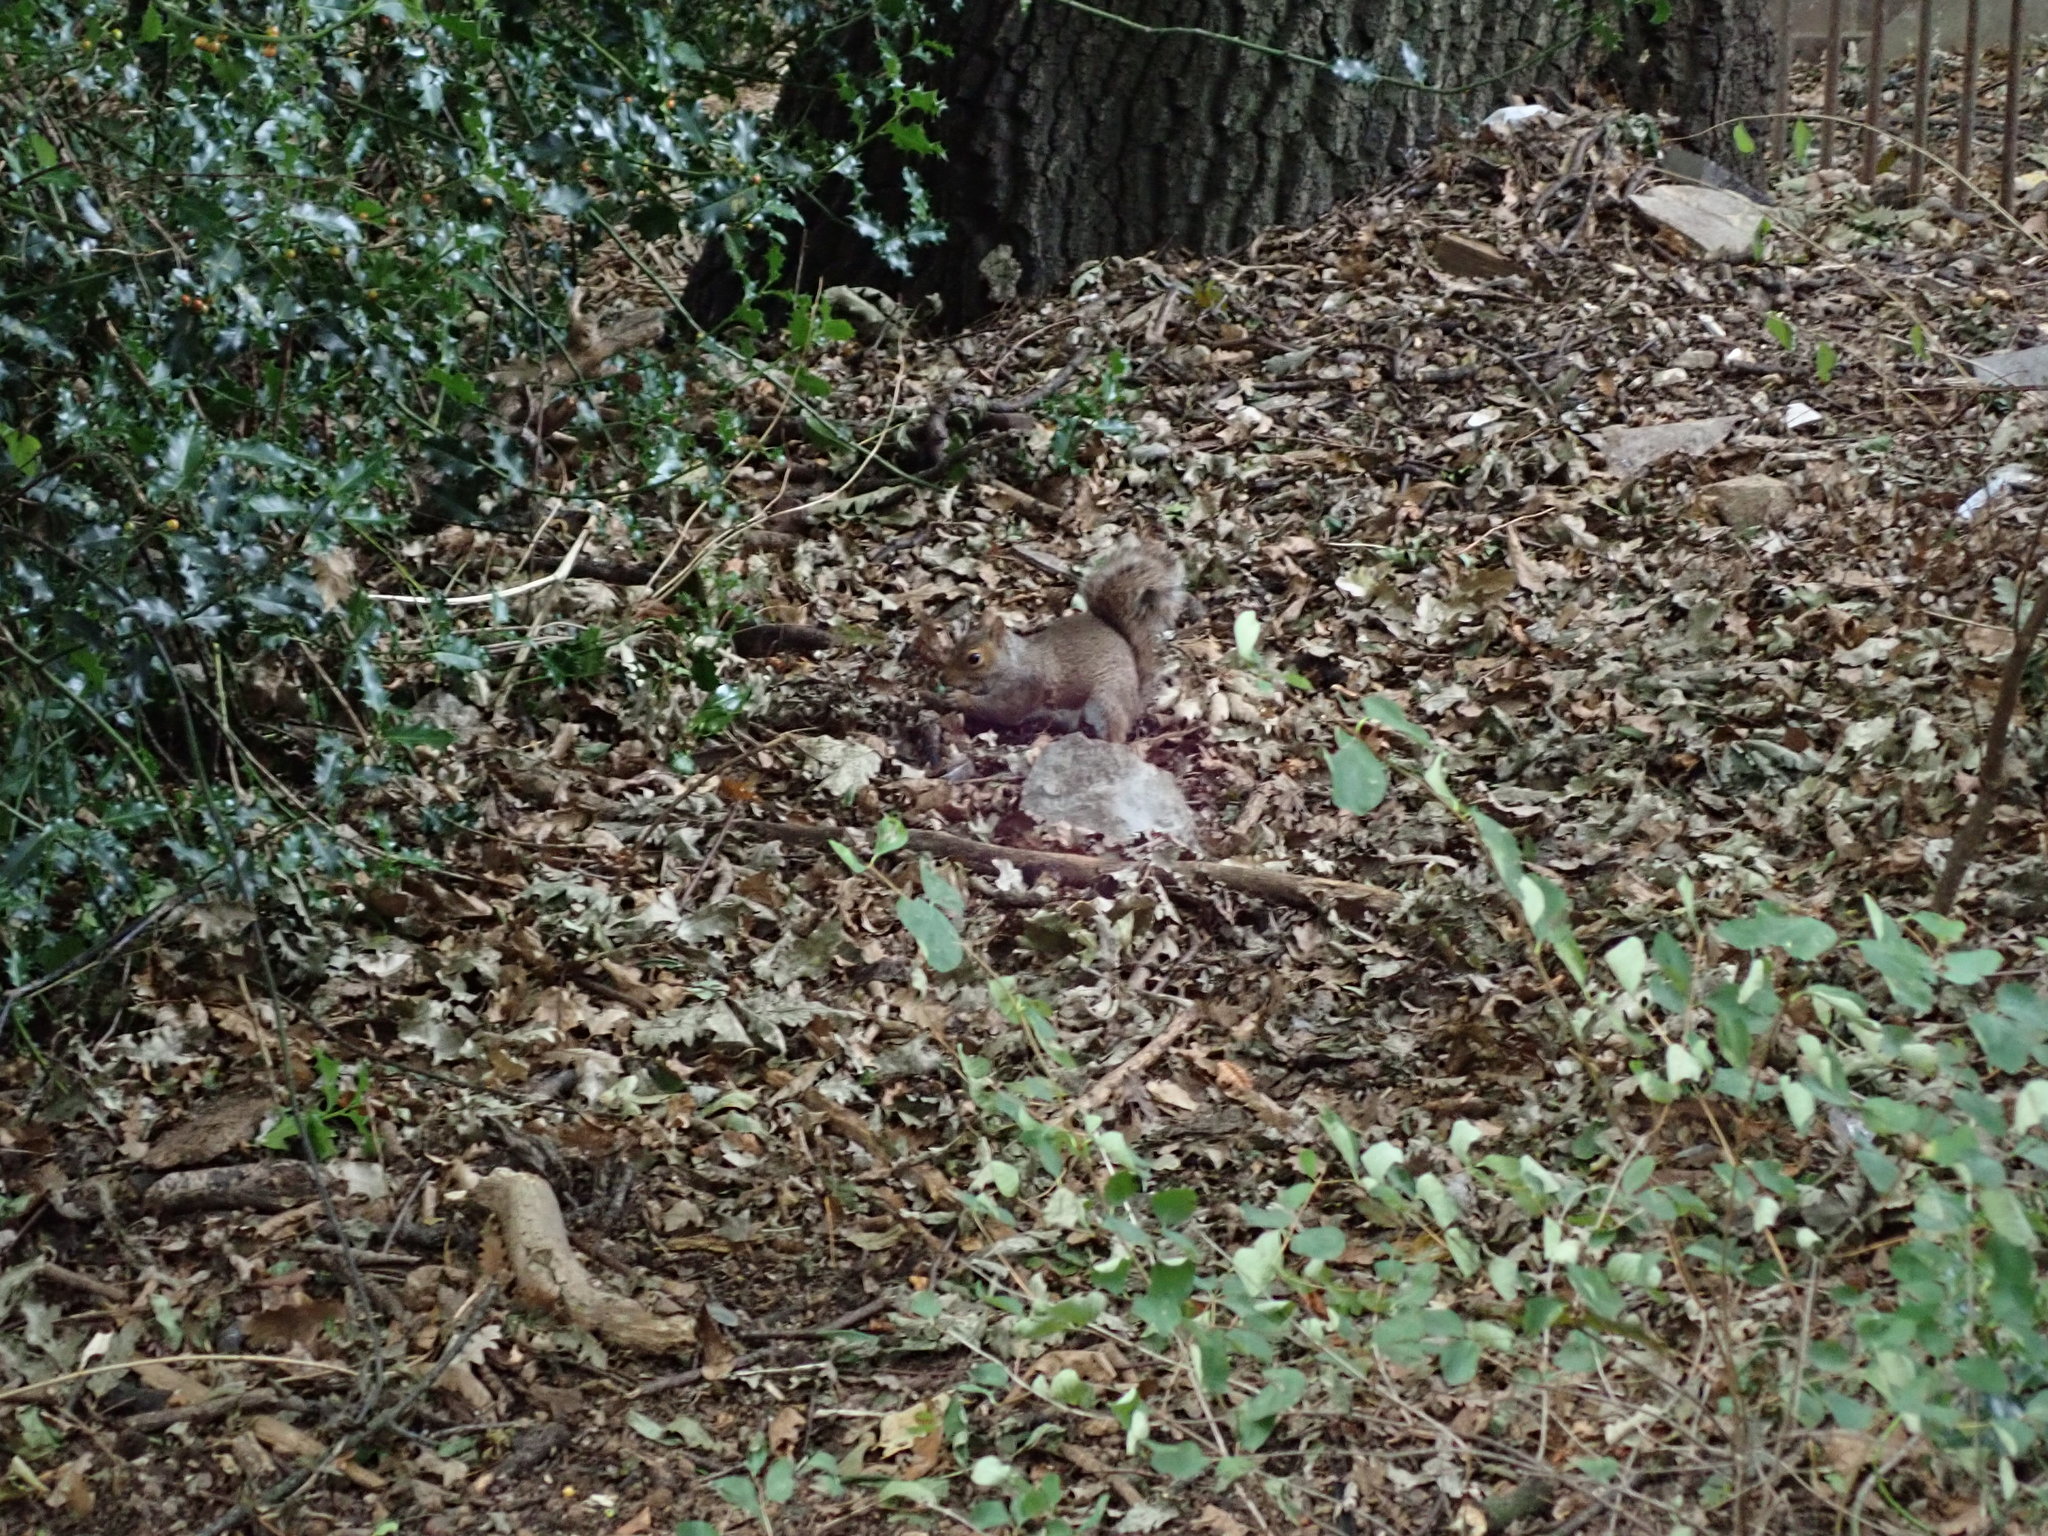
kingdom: Animalia
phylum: Chordata
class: Mammalia
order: Rodentia
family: Sciuridae
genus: Sciurus
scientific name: Sciurus carolinensis
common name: Eastern gray squirrel
